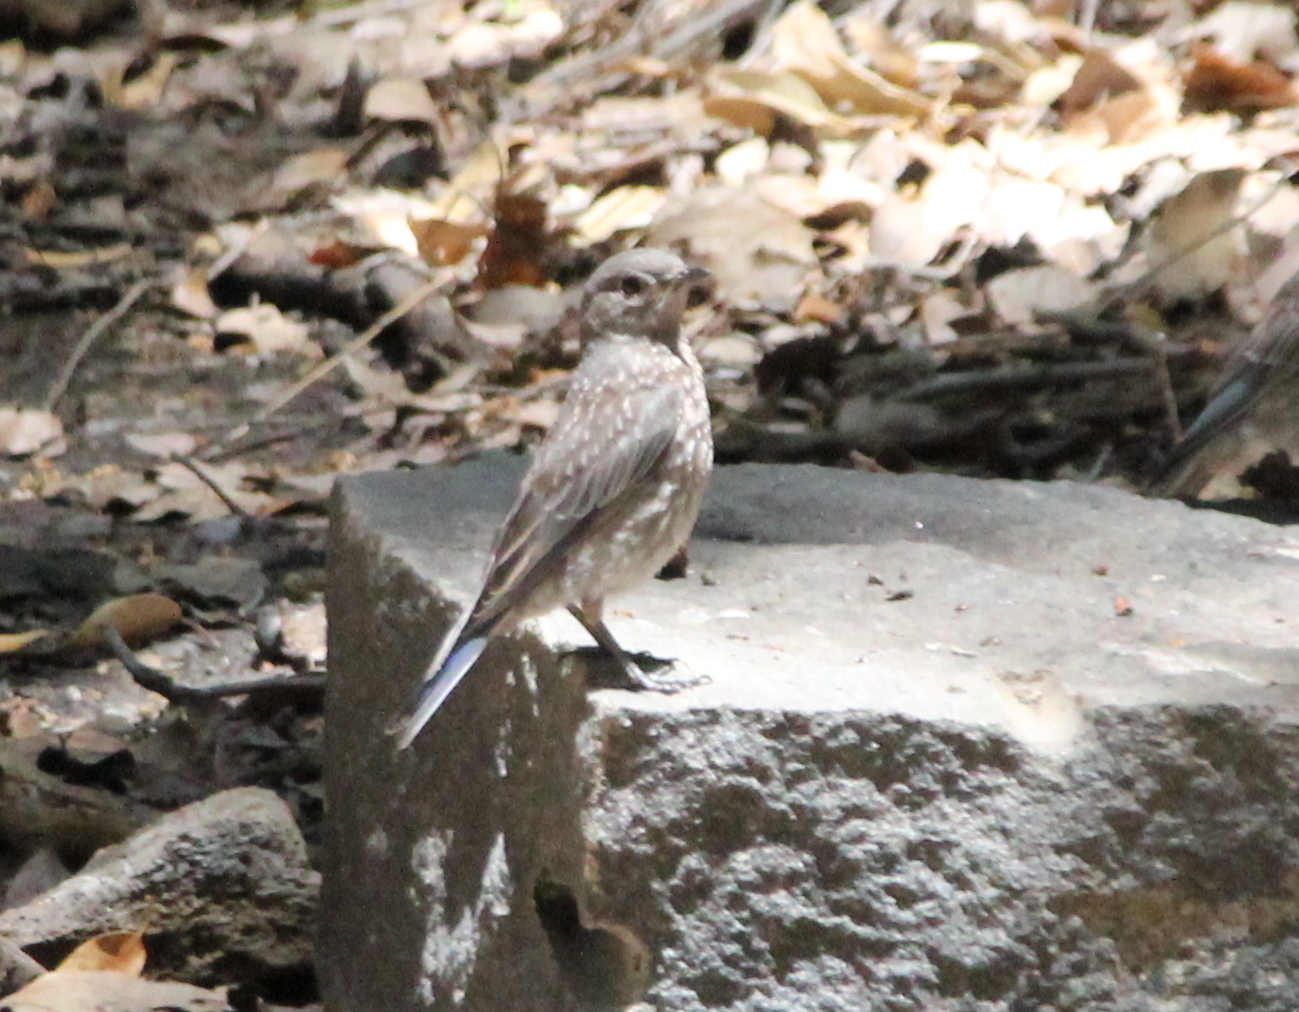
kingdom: Animalia
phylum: Chordata
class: Aves
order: Passeriformes
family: Turdidae
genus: Sialia
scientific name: Sialia mexicana
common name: Western bluebird
